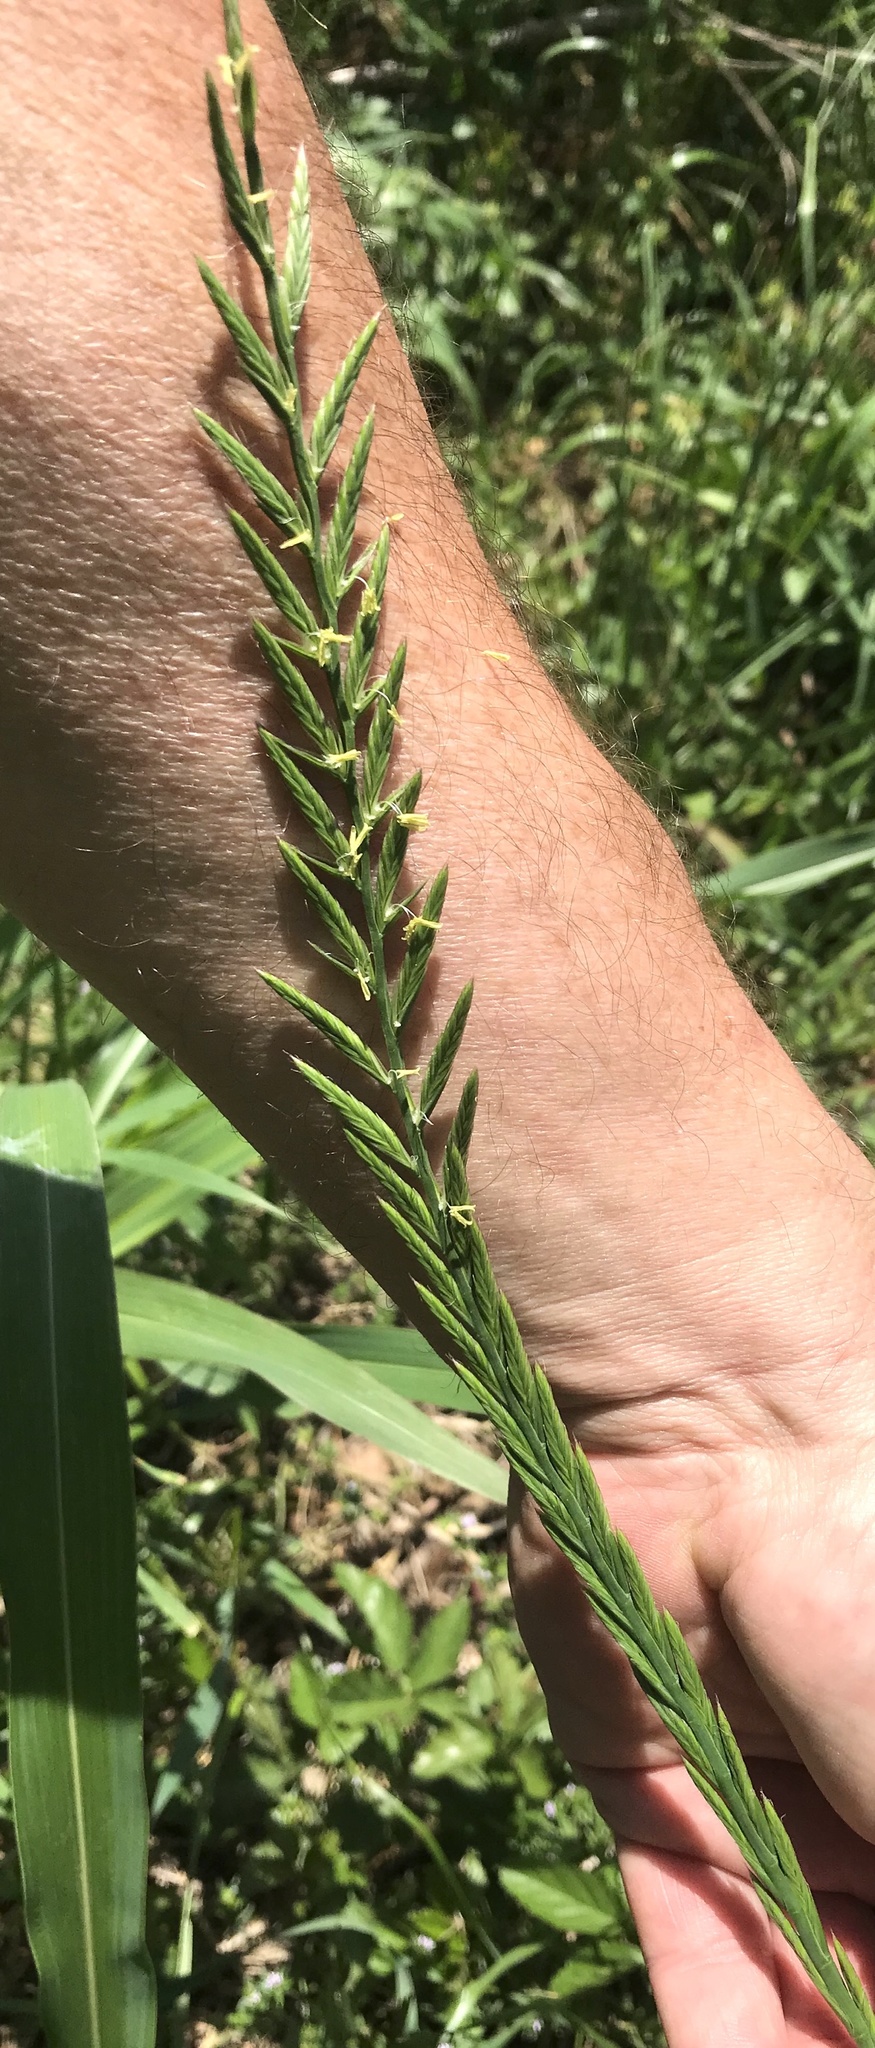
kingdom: Plantae
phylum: Tracheophyta
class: Liliopsida
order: Poales
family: Poaceae
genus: Lolium
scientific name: Lolium perenne
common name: Perennial ryegrass
